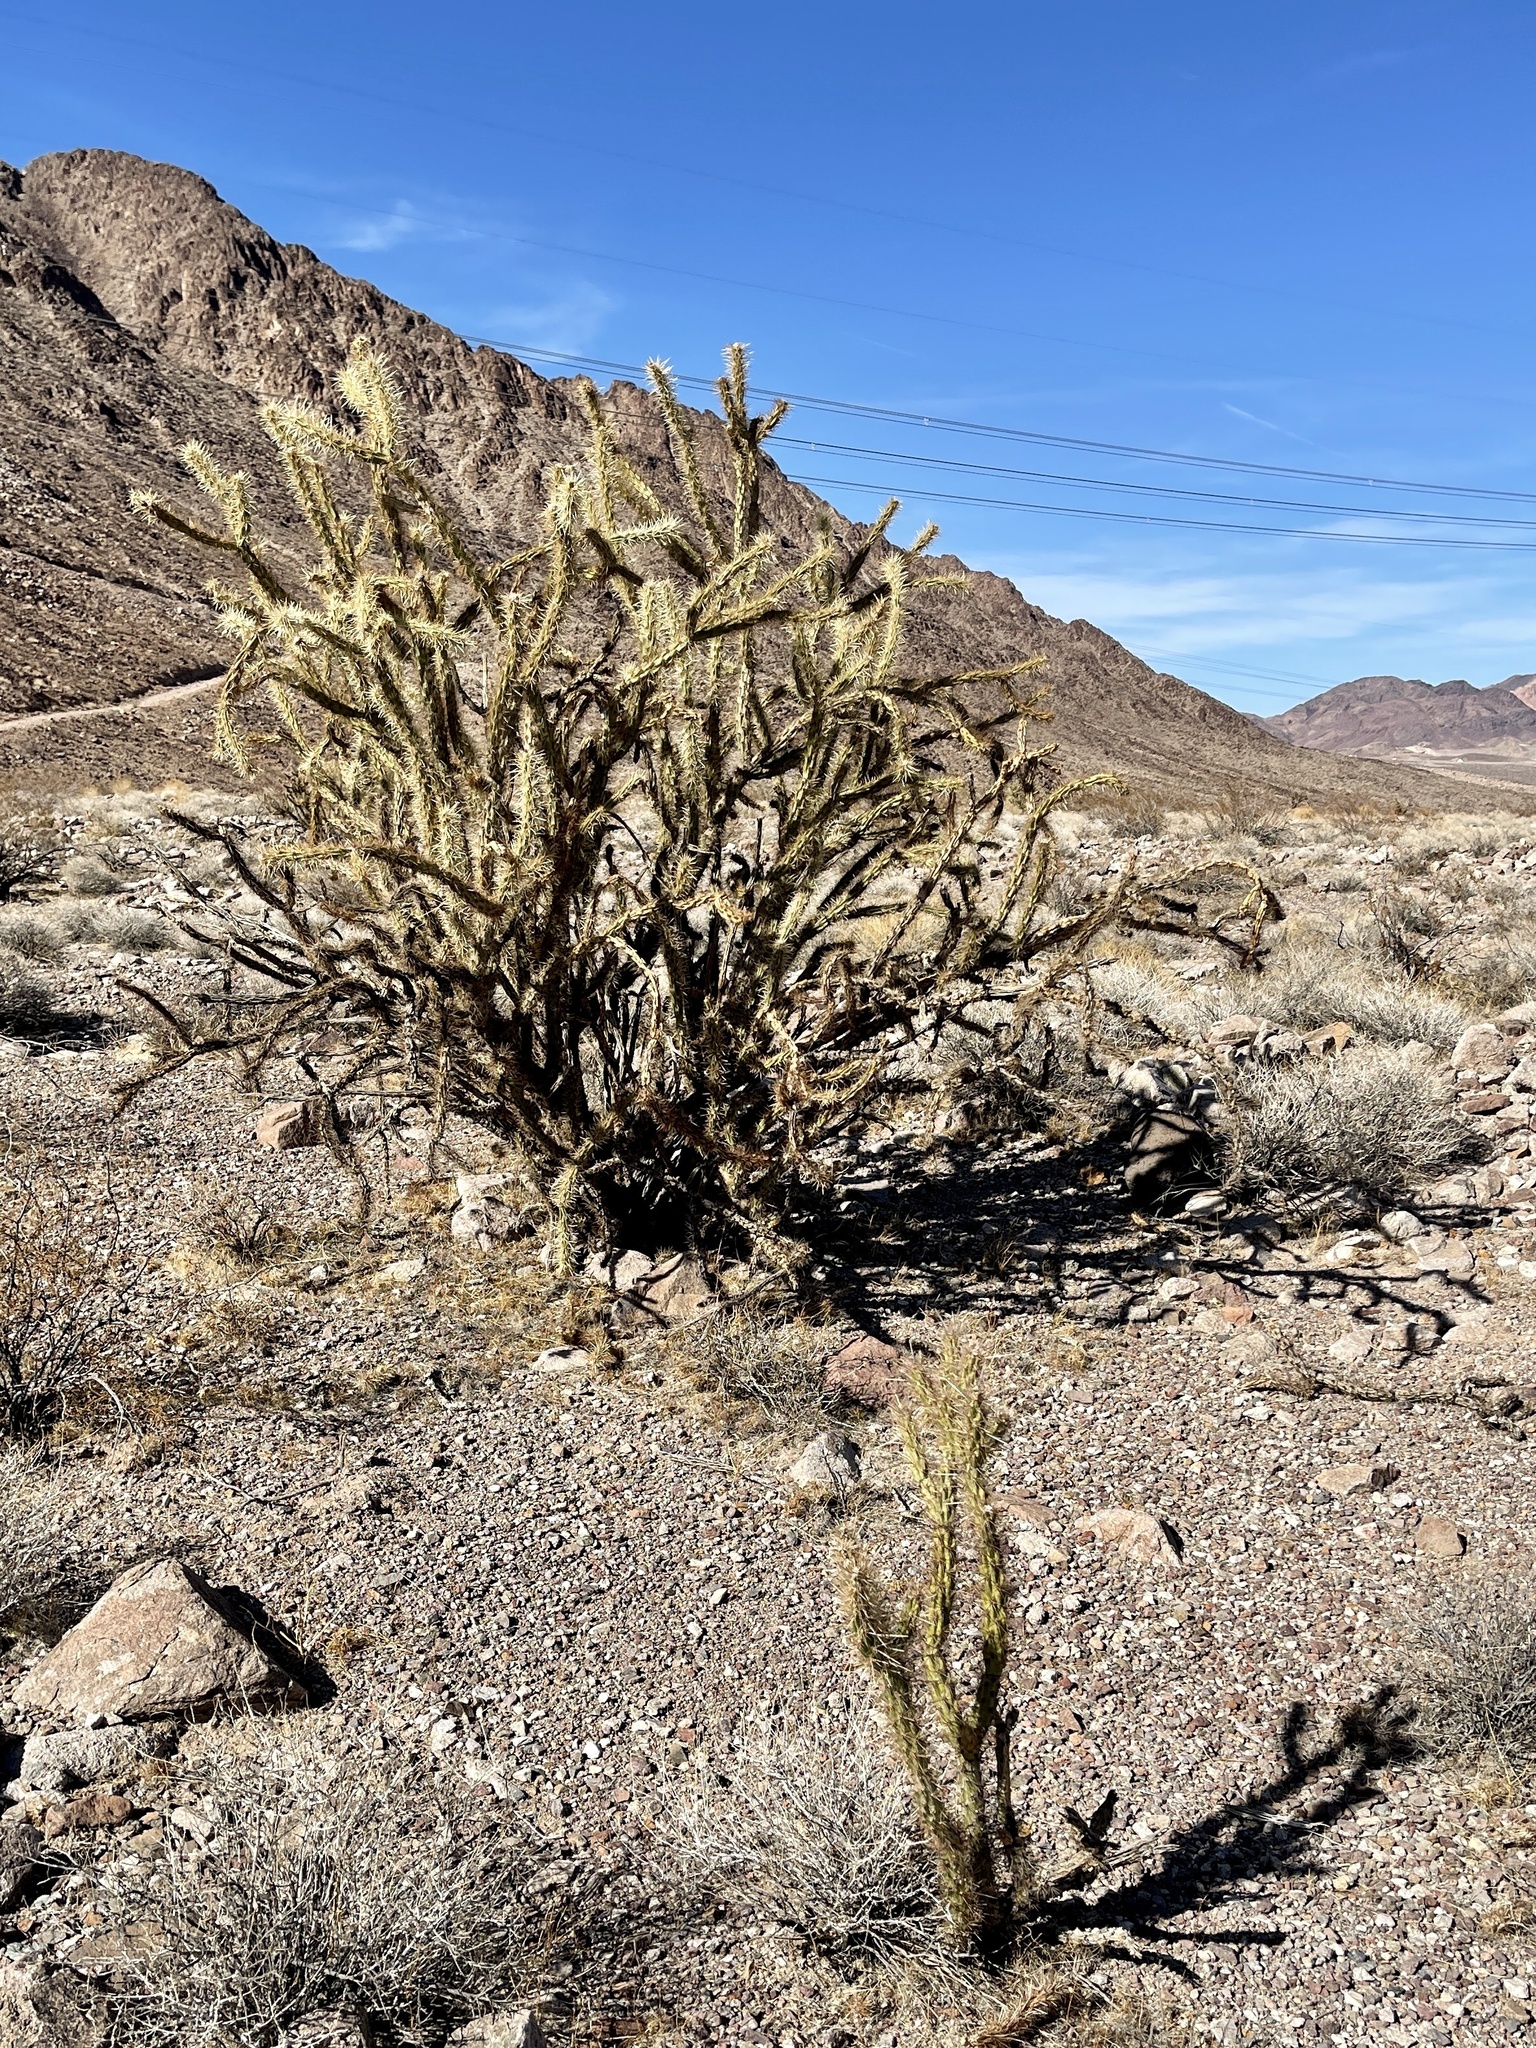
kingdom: Plantae
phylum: Tracheophyta
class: Magnoliopsida
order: Caryophyllales
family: Cactaceae
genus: Cylindropuntia
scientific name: Cylindropuntia acanthocarpa
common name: Buckhorn cholla
